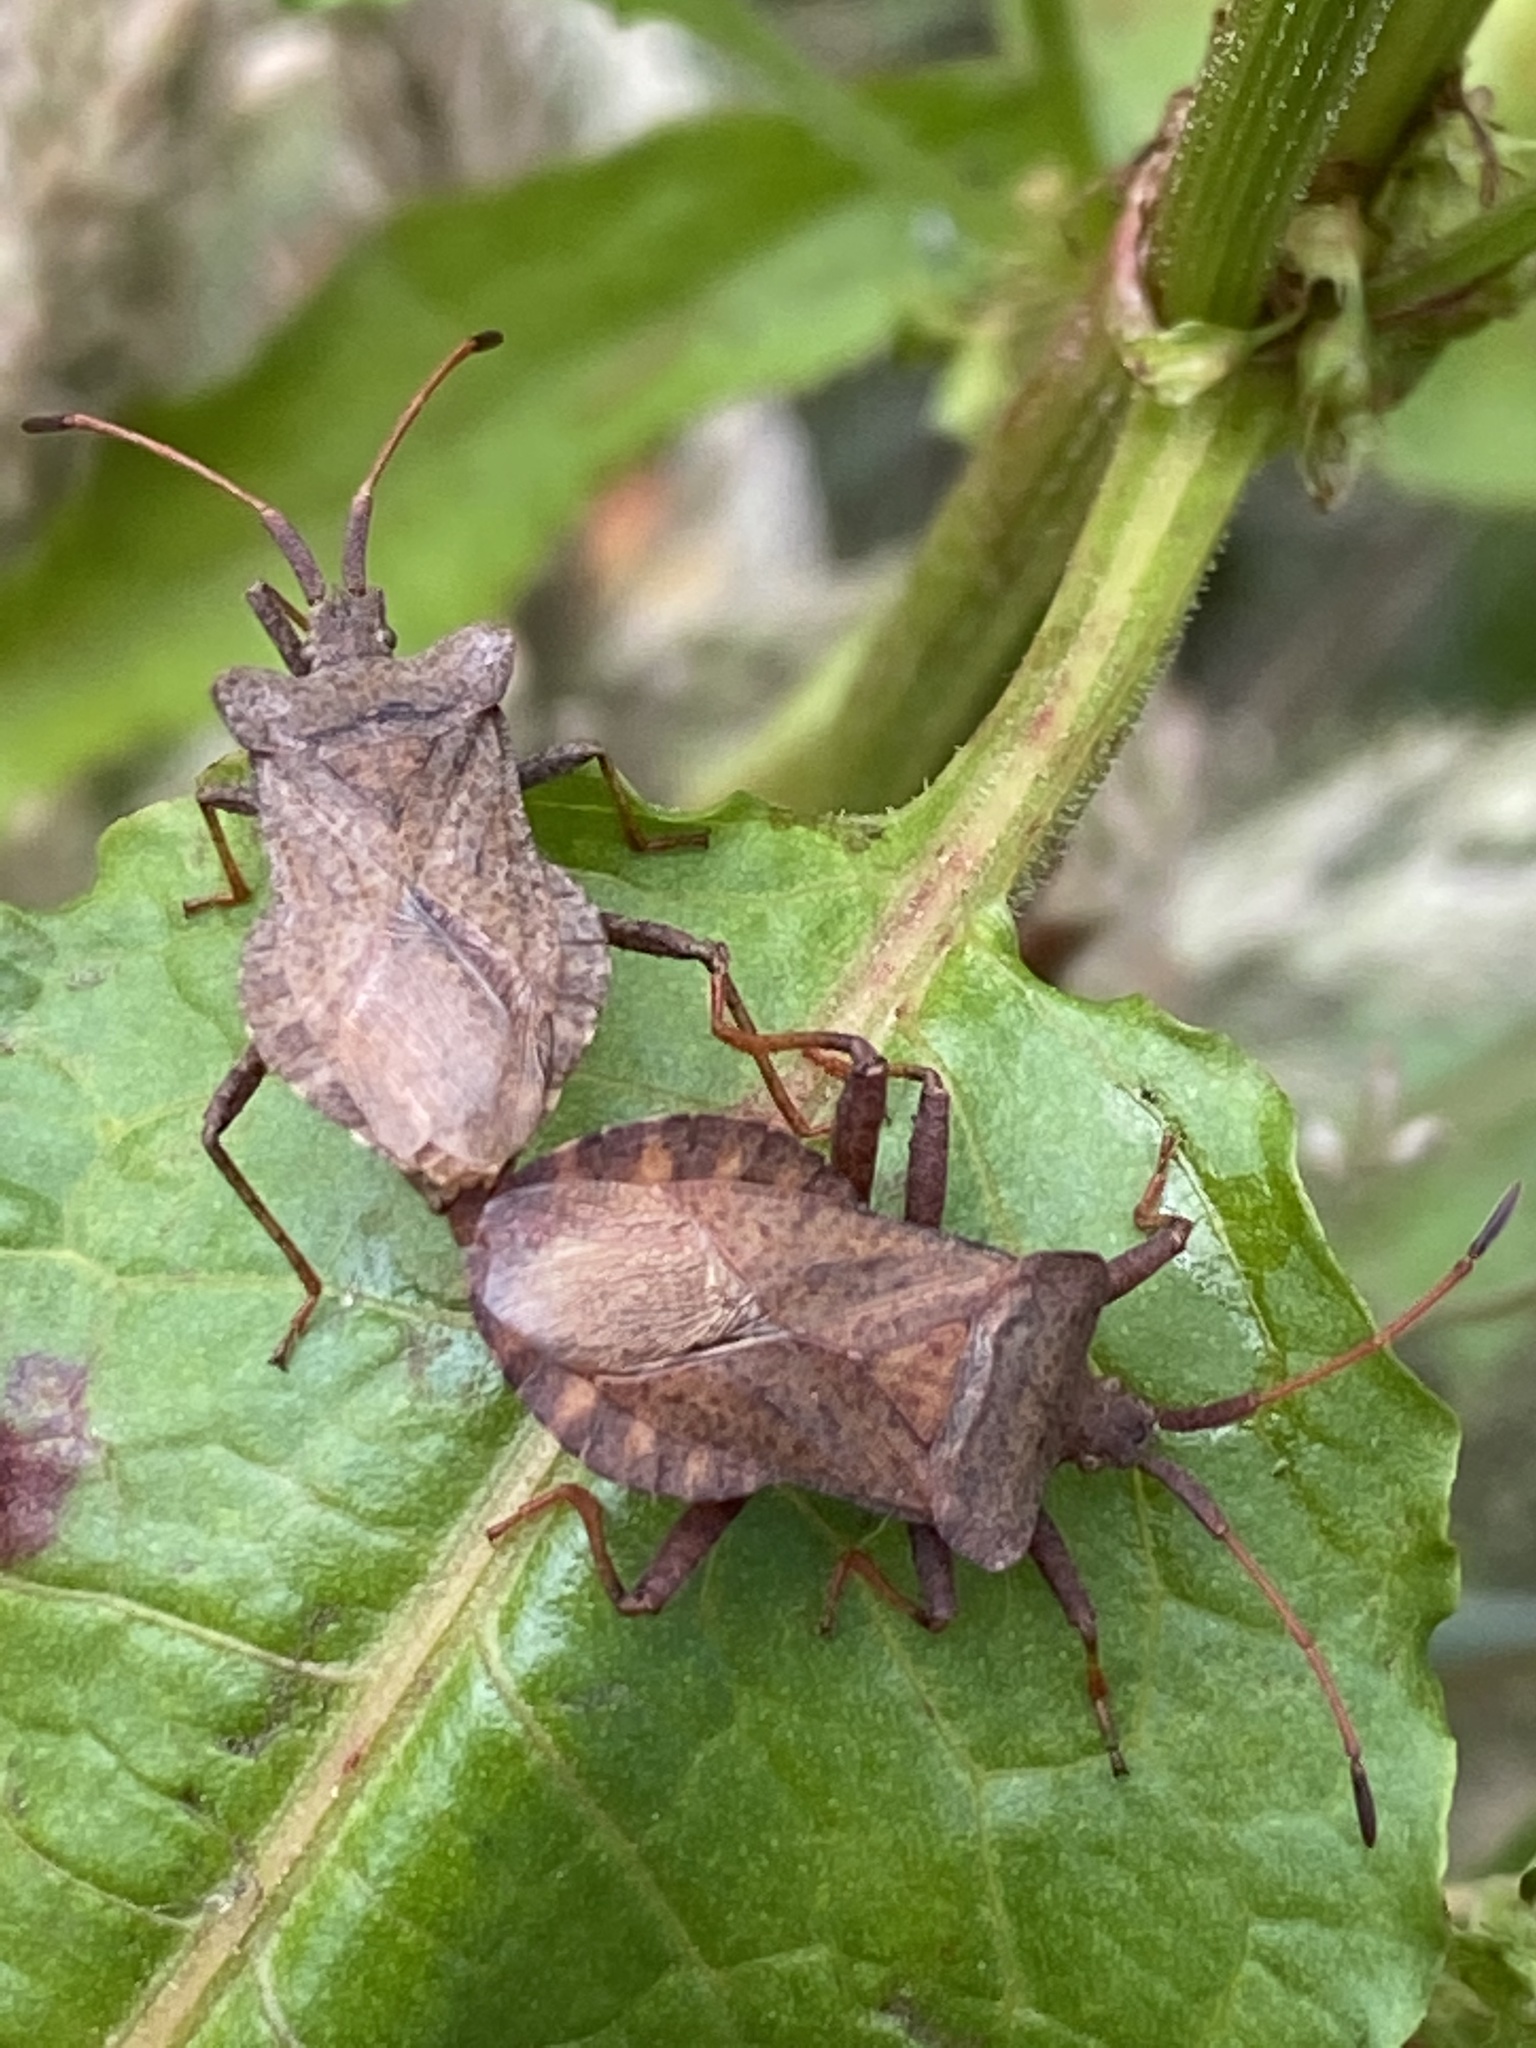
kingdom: Animalia
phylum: Arthropoda
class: Insecta
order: Hemiptera
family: Coreidae
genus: Coreus
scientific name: Coreus marginatus
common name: Dock bug
